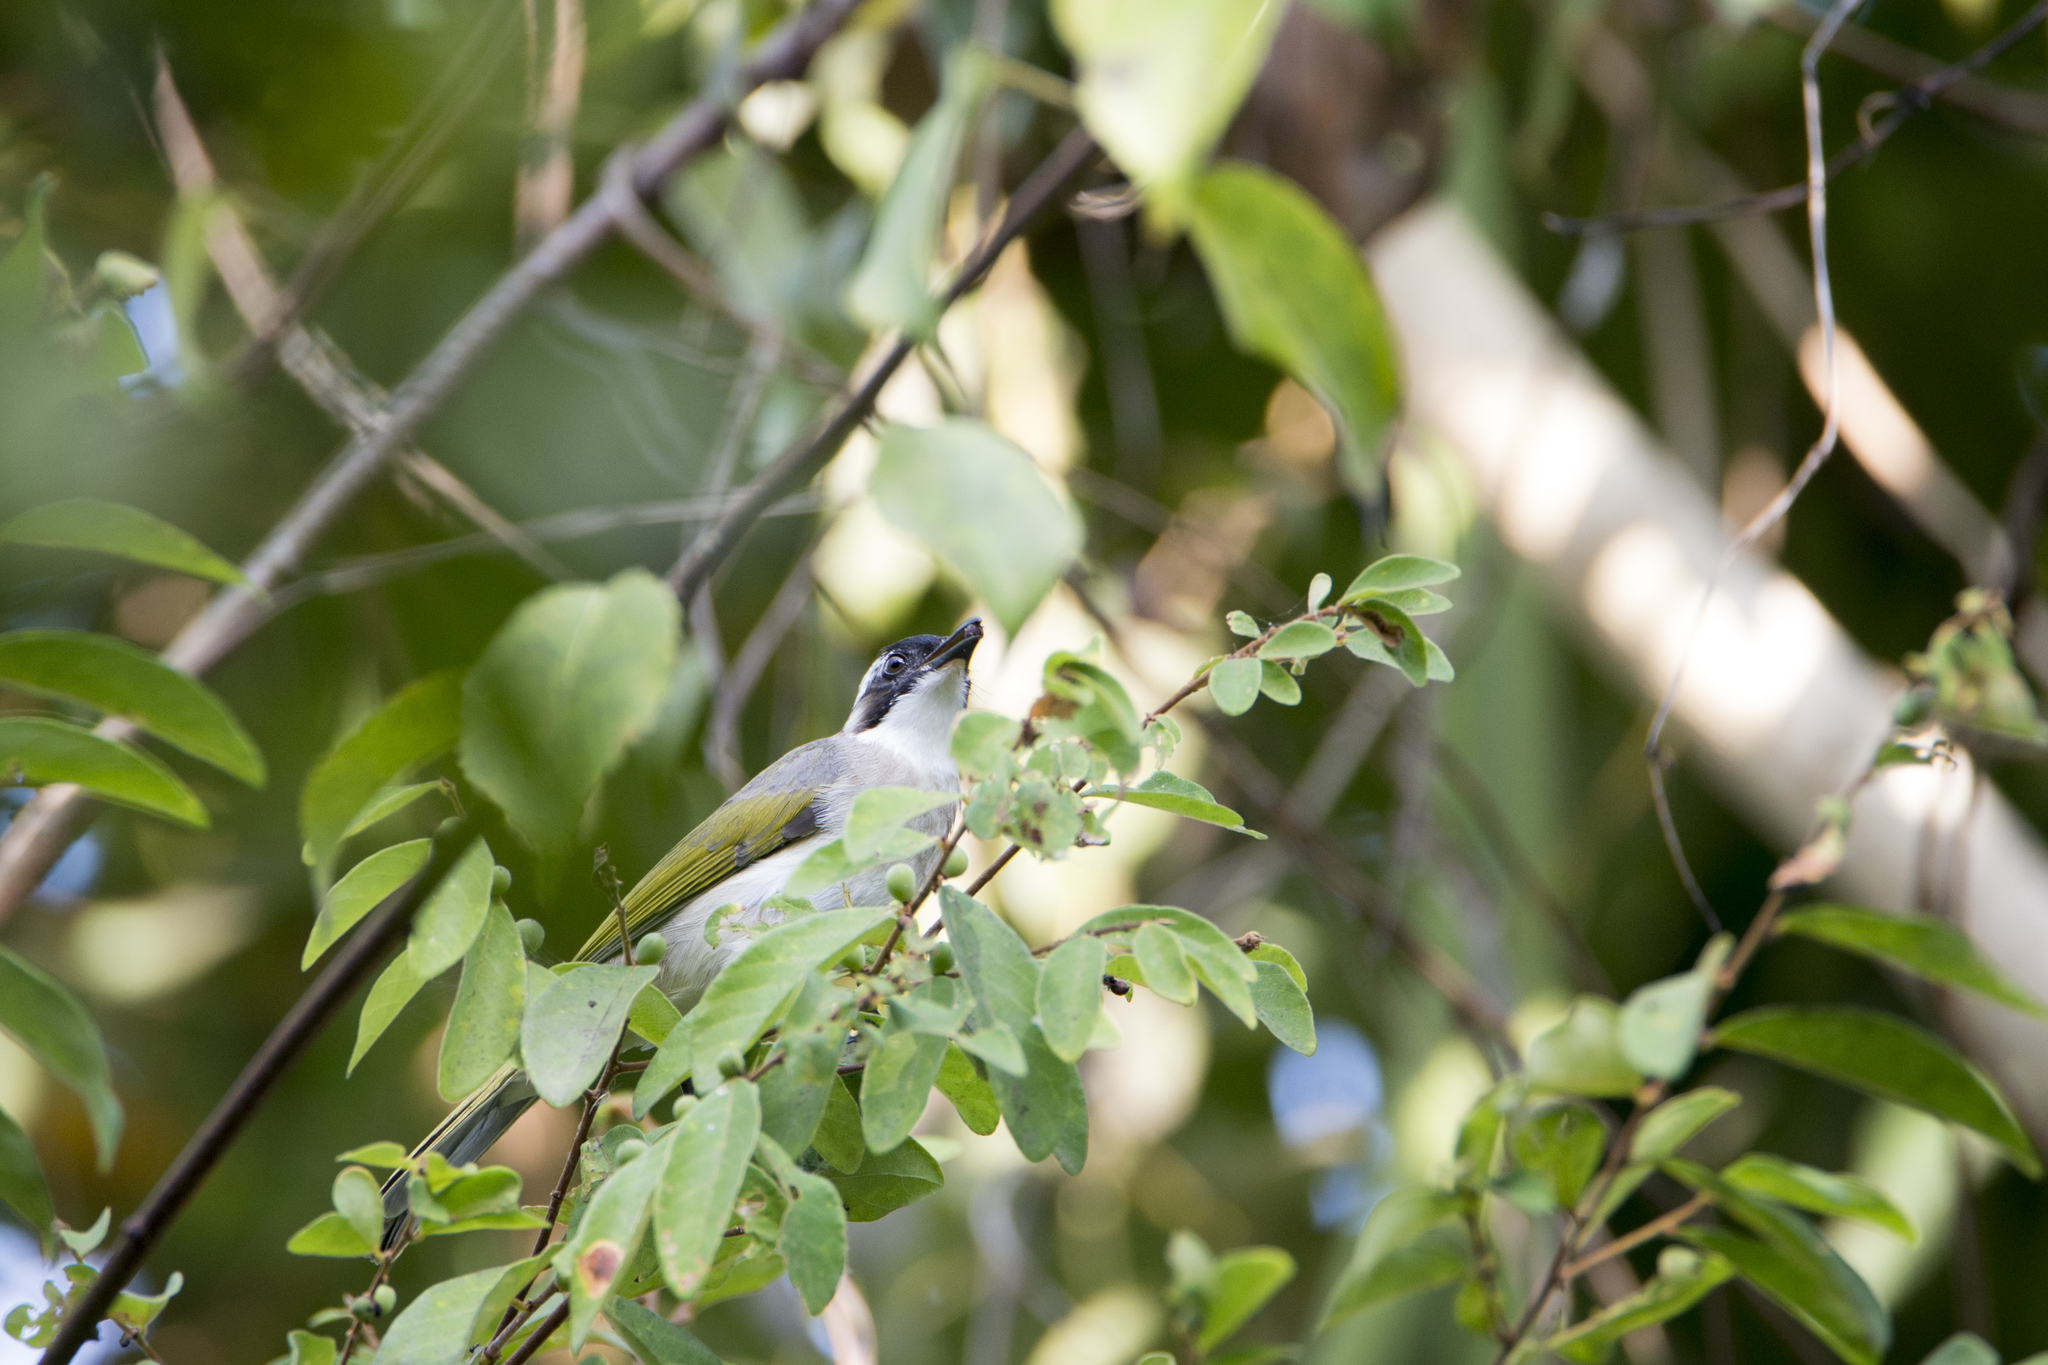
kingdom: Animalia
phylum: Chordata
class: Aves
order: Passeriformes
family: Pycnonotidae
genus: Pycnonotus
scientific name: Pycnonotus sinensis
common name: Light-vented bulbul
